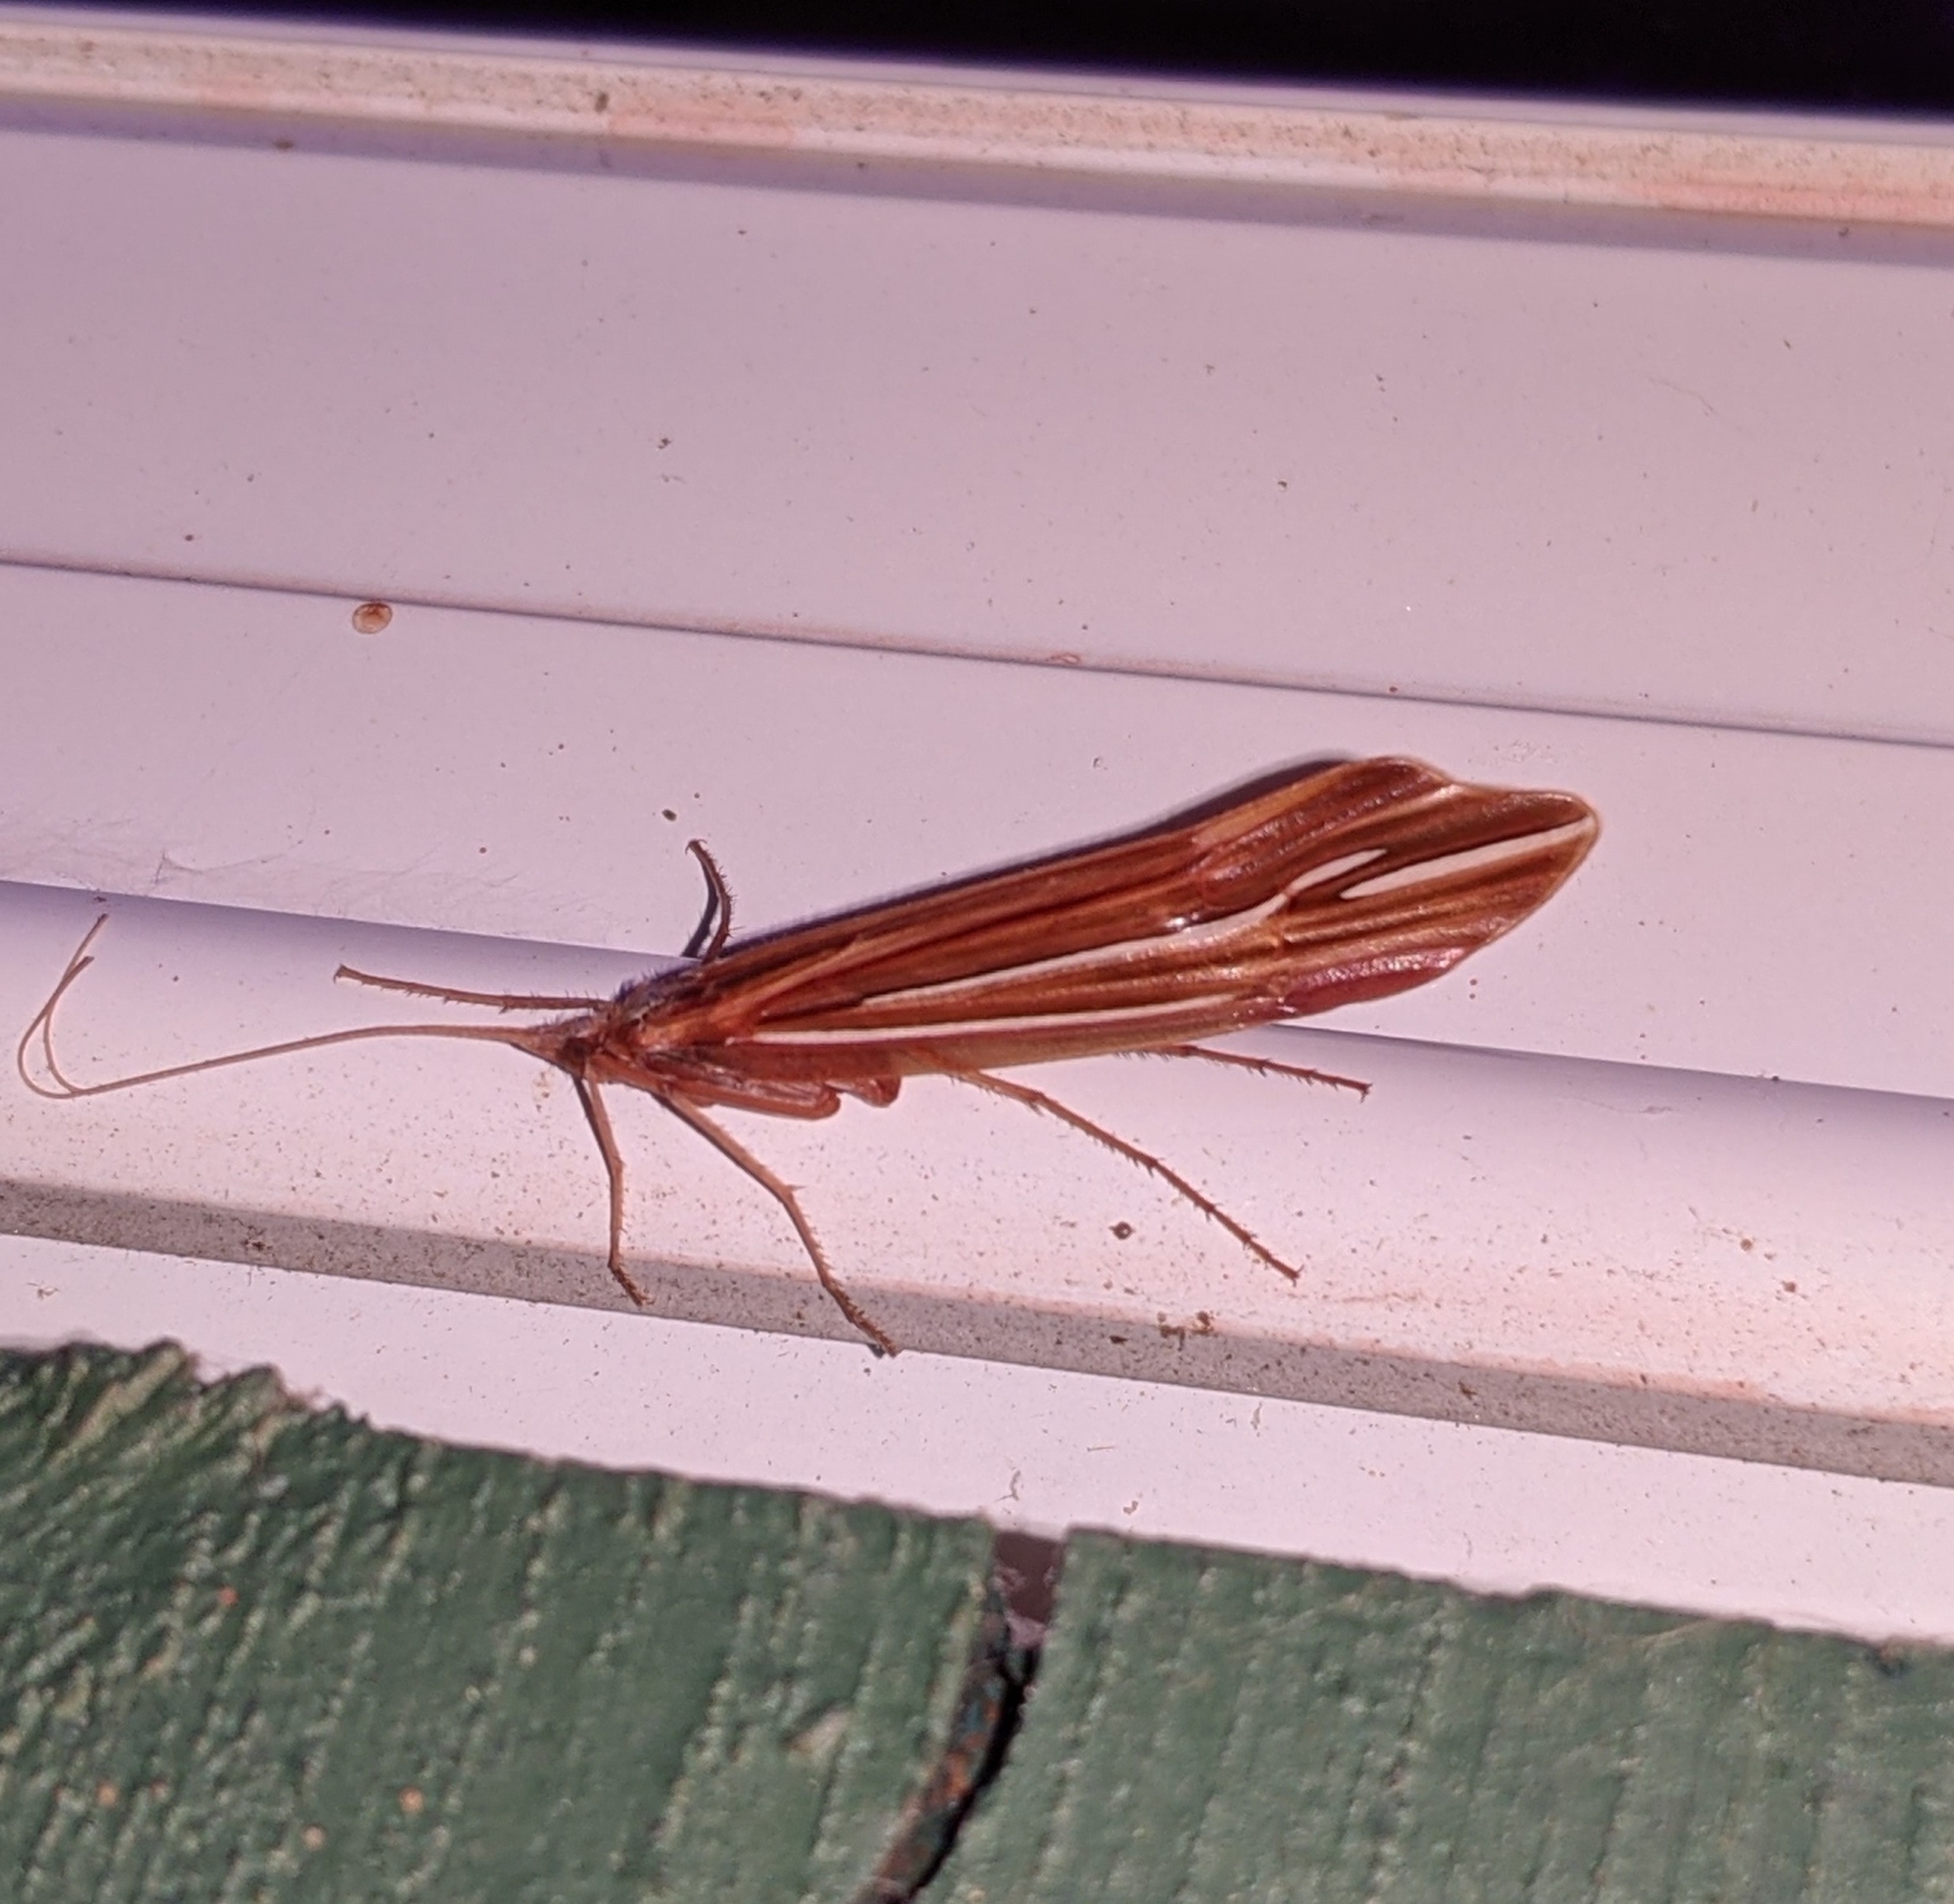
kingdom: Animalia
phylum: Arthropoda
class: Insecta
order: Trichoptera
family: Limnephilidae
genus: Psychoglypha
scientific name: Psychoglypha bella
